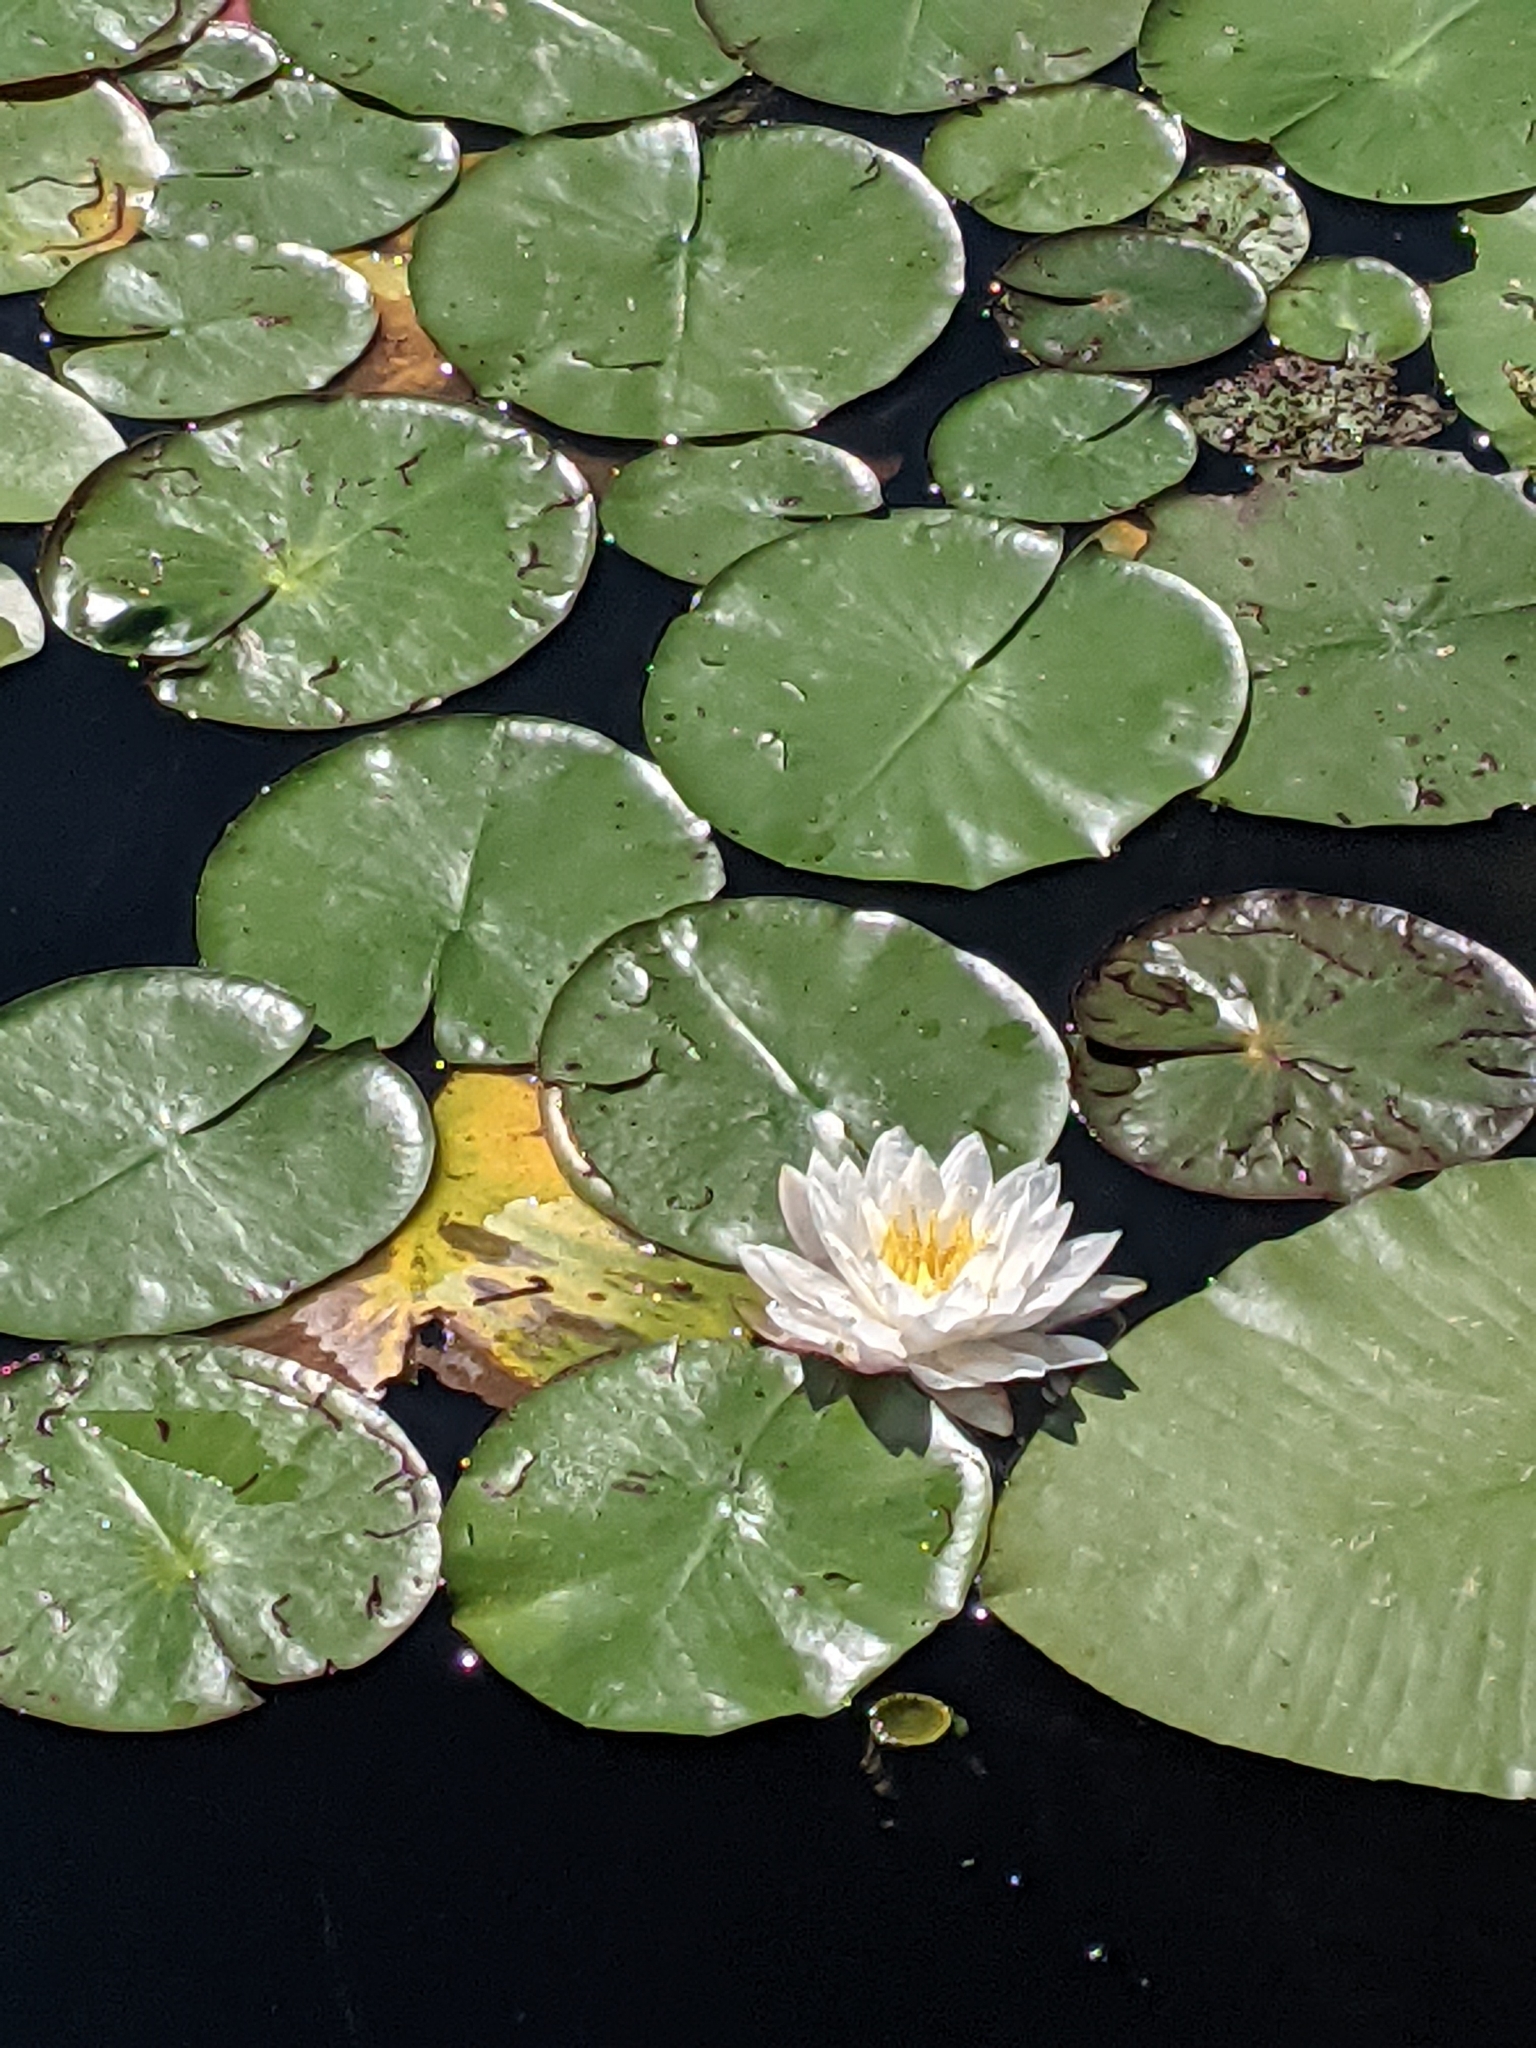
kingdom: Plantae
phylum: Tracheophyta
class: Magnoliopsida
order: Nymphaeales
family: Nymphaeaceae
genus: Nymphaea
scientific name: Nymphaea odorata
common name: Fragrant water-lily
